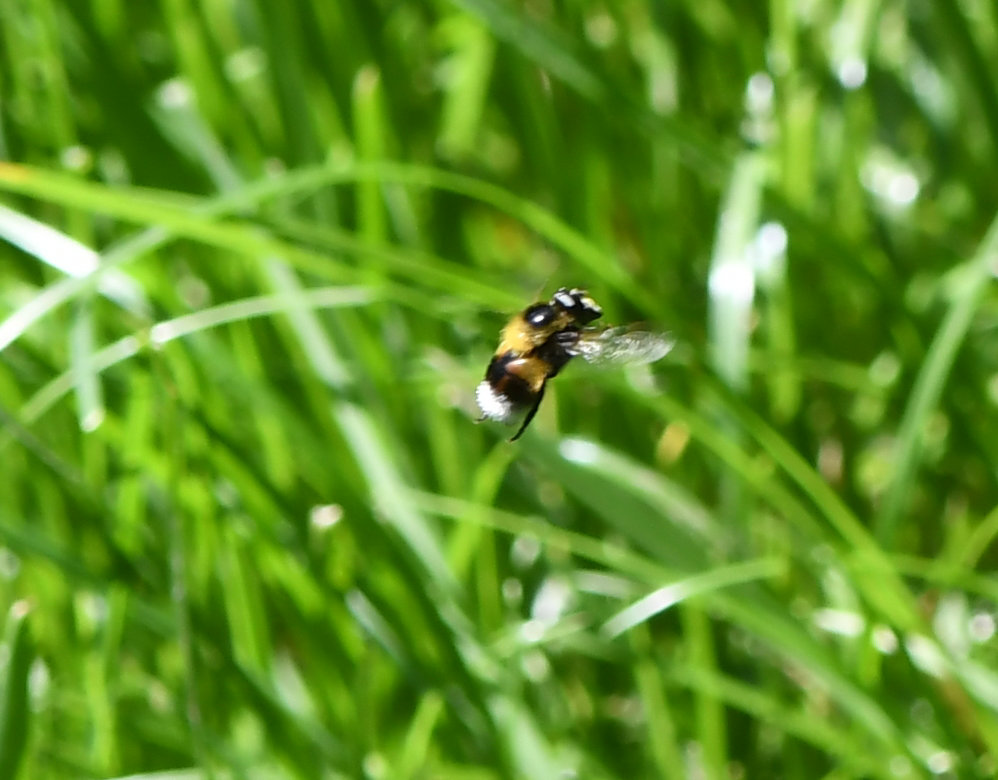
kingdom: Animalia
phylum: Arthropoda
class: Insecta
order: Diptera
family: Syrphidae
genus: Volucella
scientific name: Volucella bombylans
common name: Bumble bee hover fly
